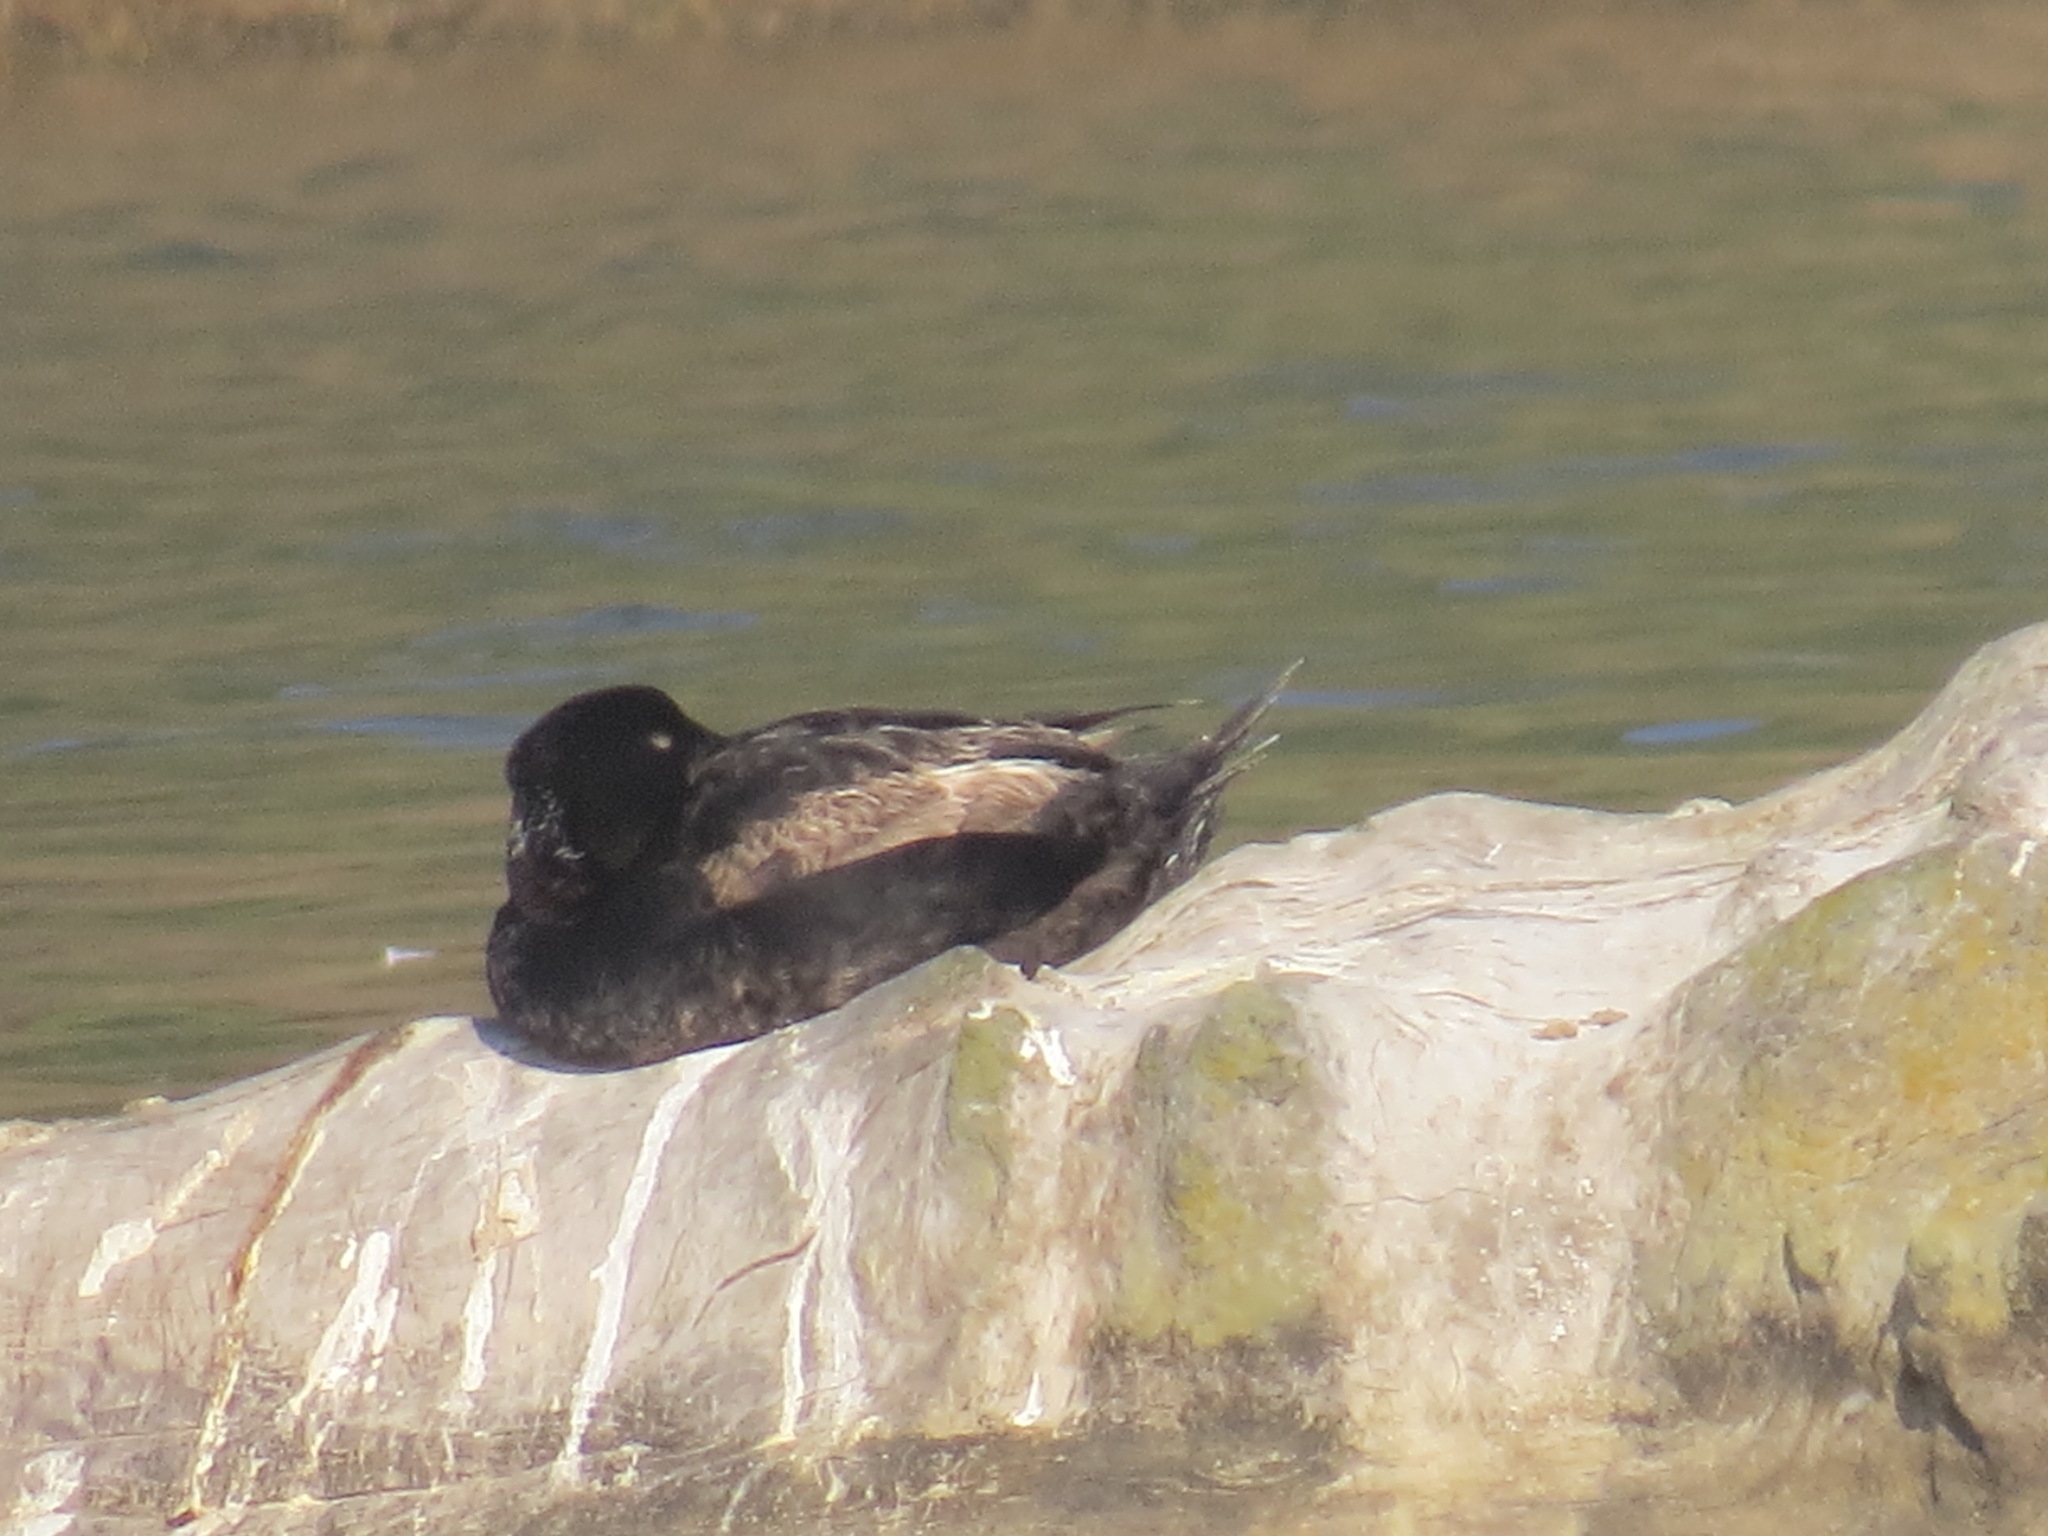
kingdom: Animalia
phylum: Chordata
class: Aves
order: Anseriformes
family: Anatidae
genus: Melanitta
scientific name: Melanitta perspicillata
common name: Surf scoter
